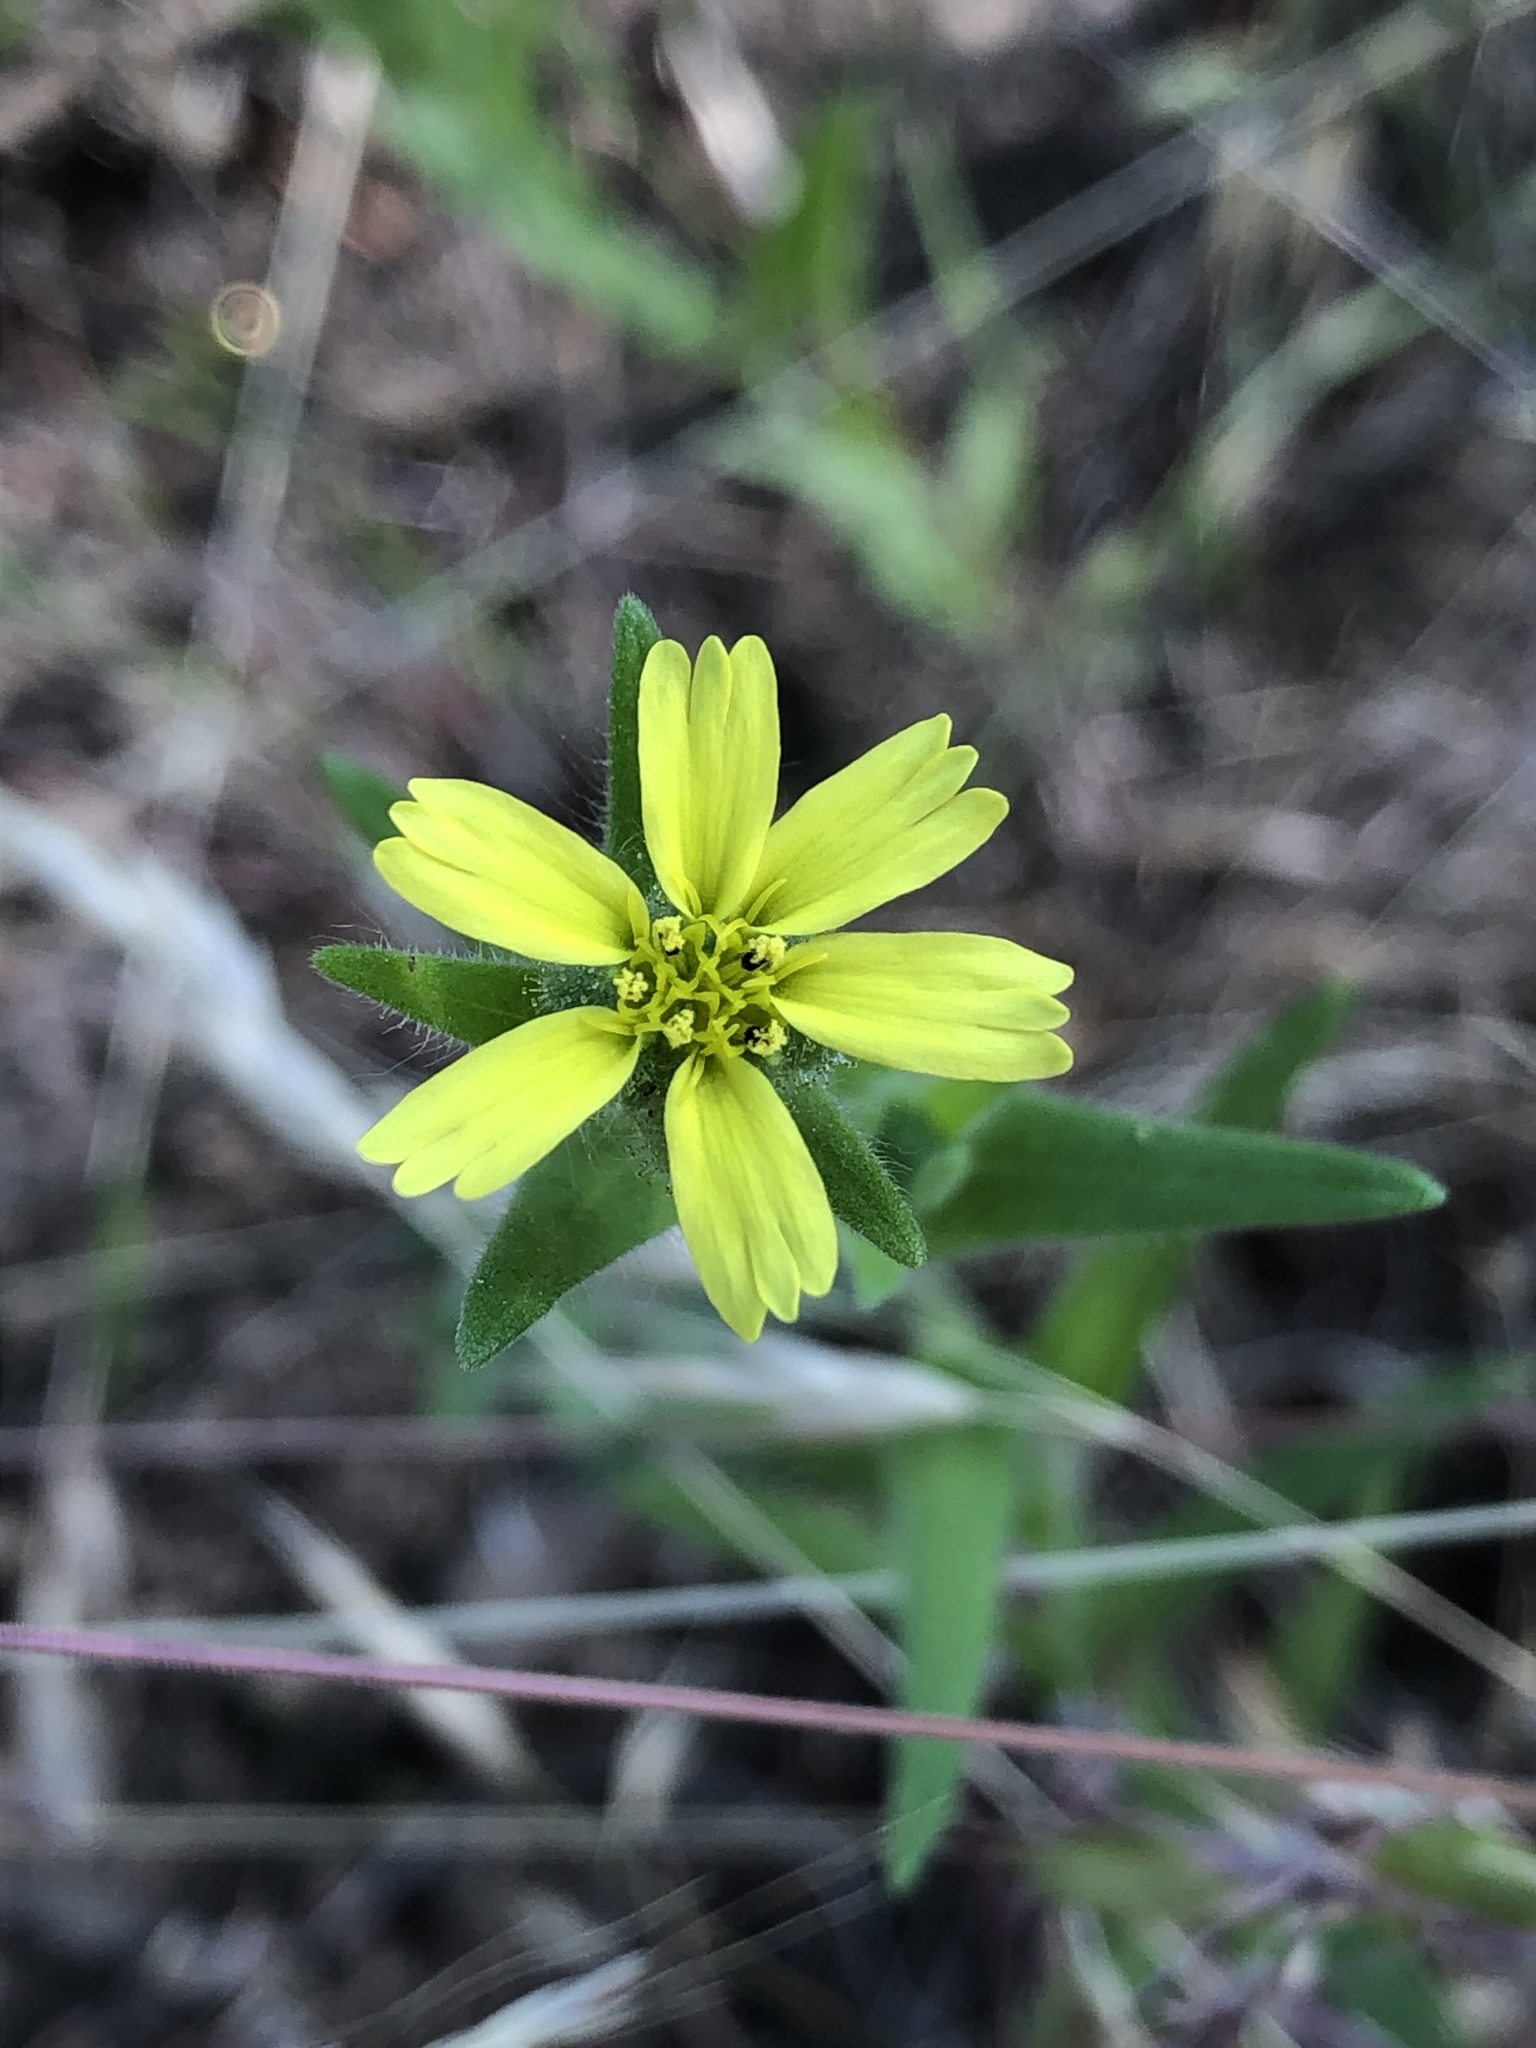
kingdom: Plantae
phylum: Tracheophyta
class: Magnoliopsida
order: Asterales
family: Asteraceae
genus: Madia
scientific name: Madia gracilis
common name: Grassy tarweed
